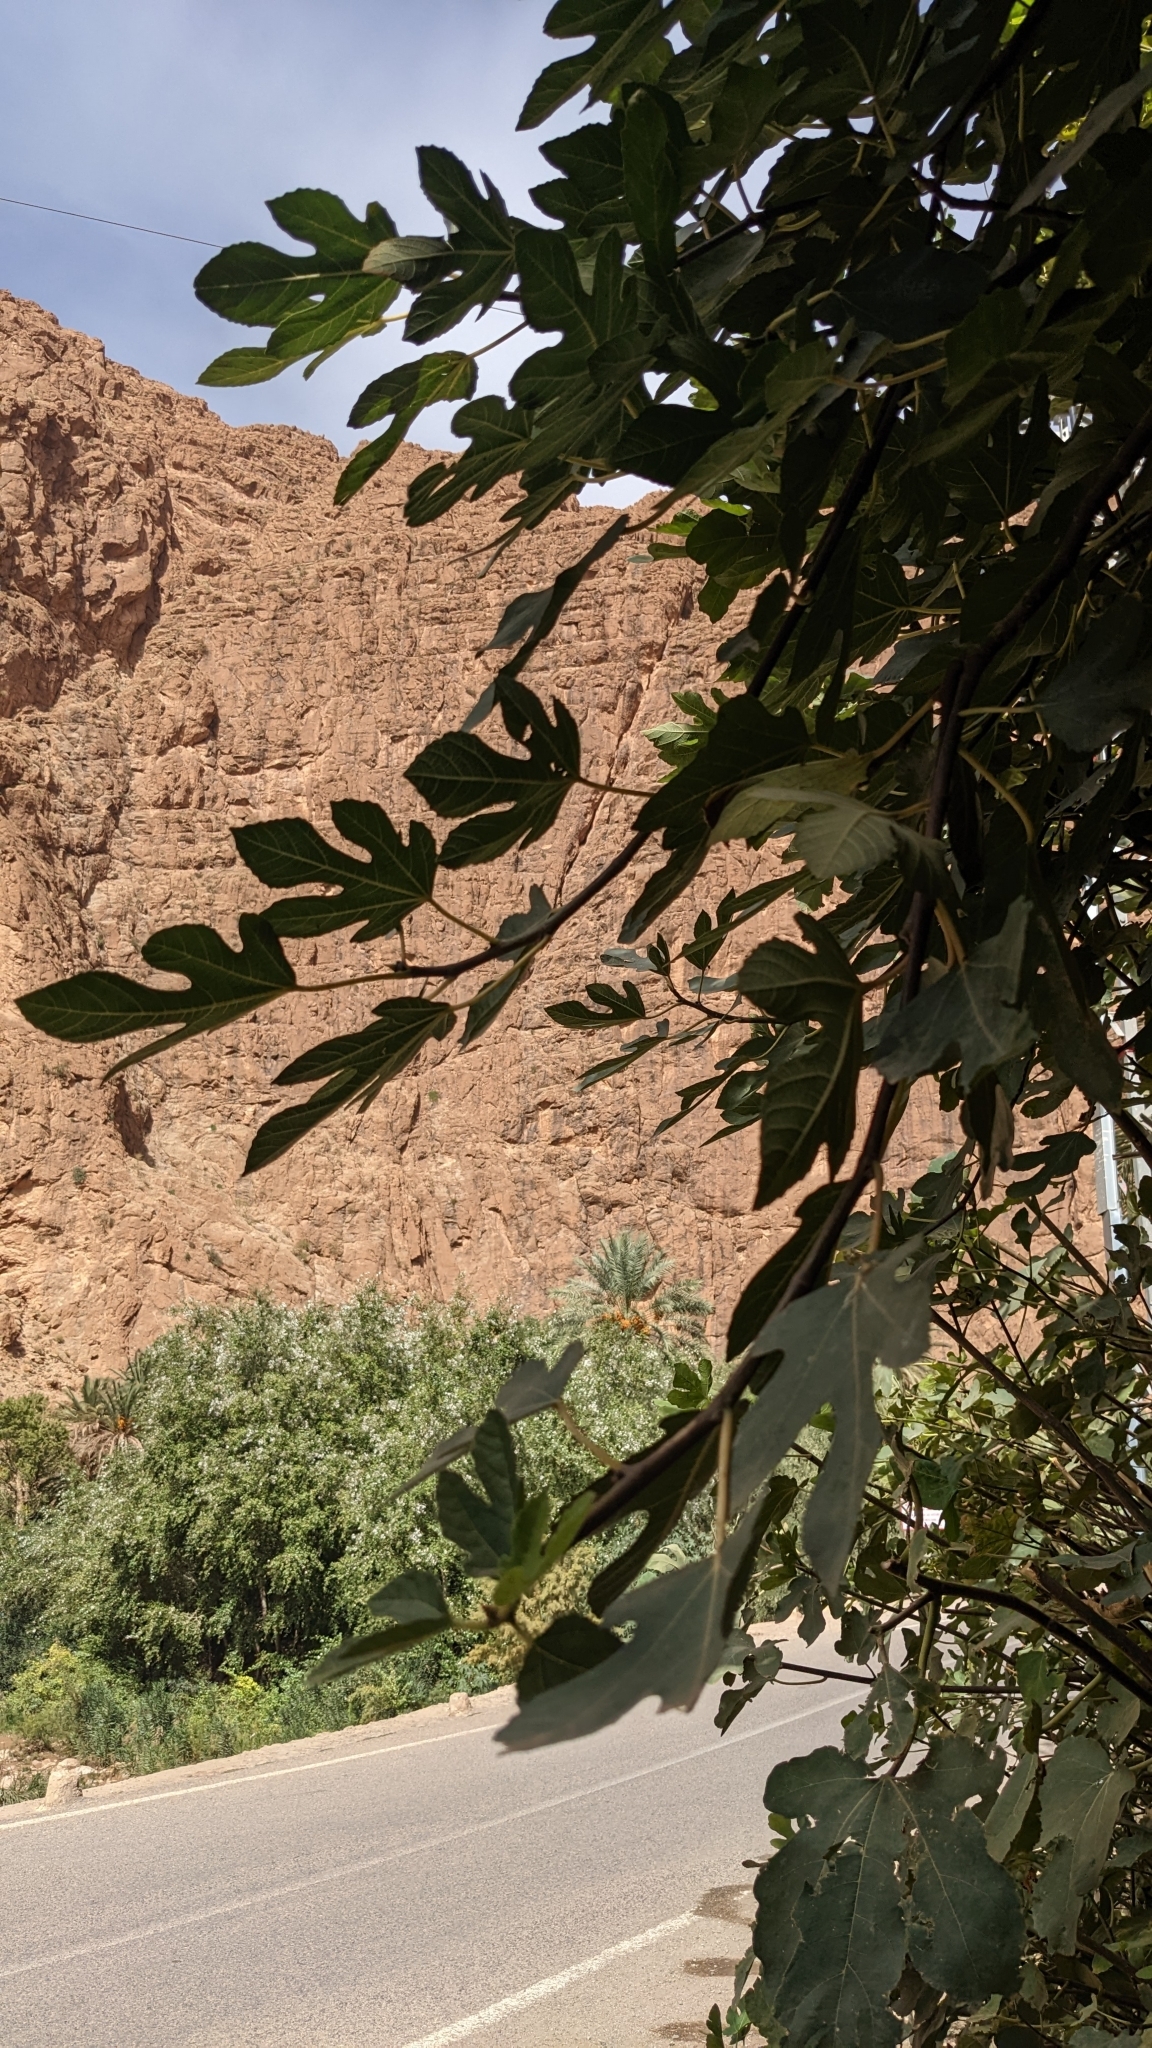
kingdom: Plantae
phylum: Tracheophyta
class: Magnoliopsida
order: Rosales
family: Moraceae
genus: Ficus
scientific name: Ficus carica
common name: Fig
